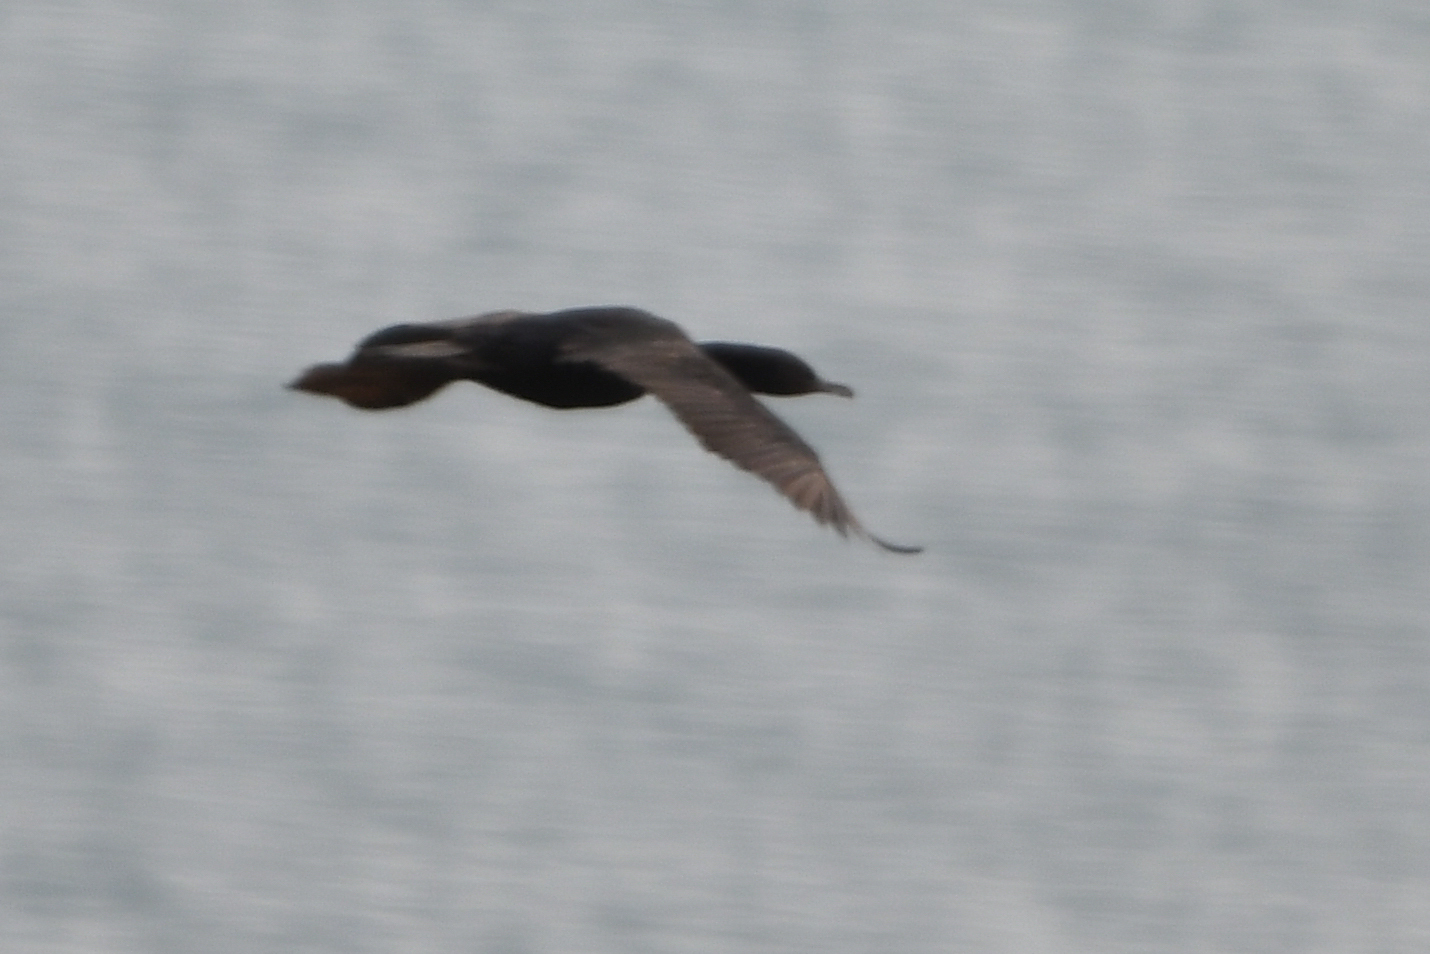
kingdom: Animalia
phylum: Chordata
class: Aves
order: Suliformes
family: Phalacrocoracidae
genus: Leucocarbo
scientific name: Leucocarbo chalconotus
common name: Stewart shag
